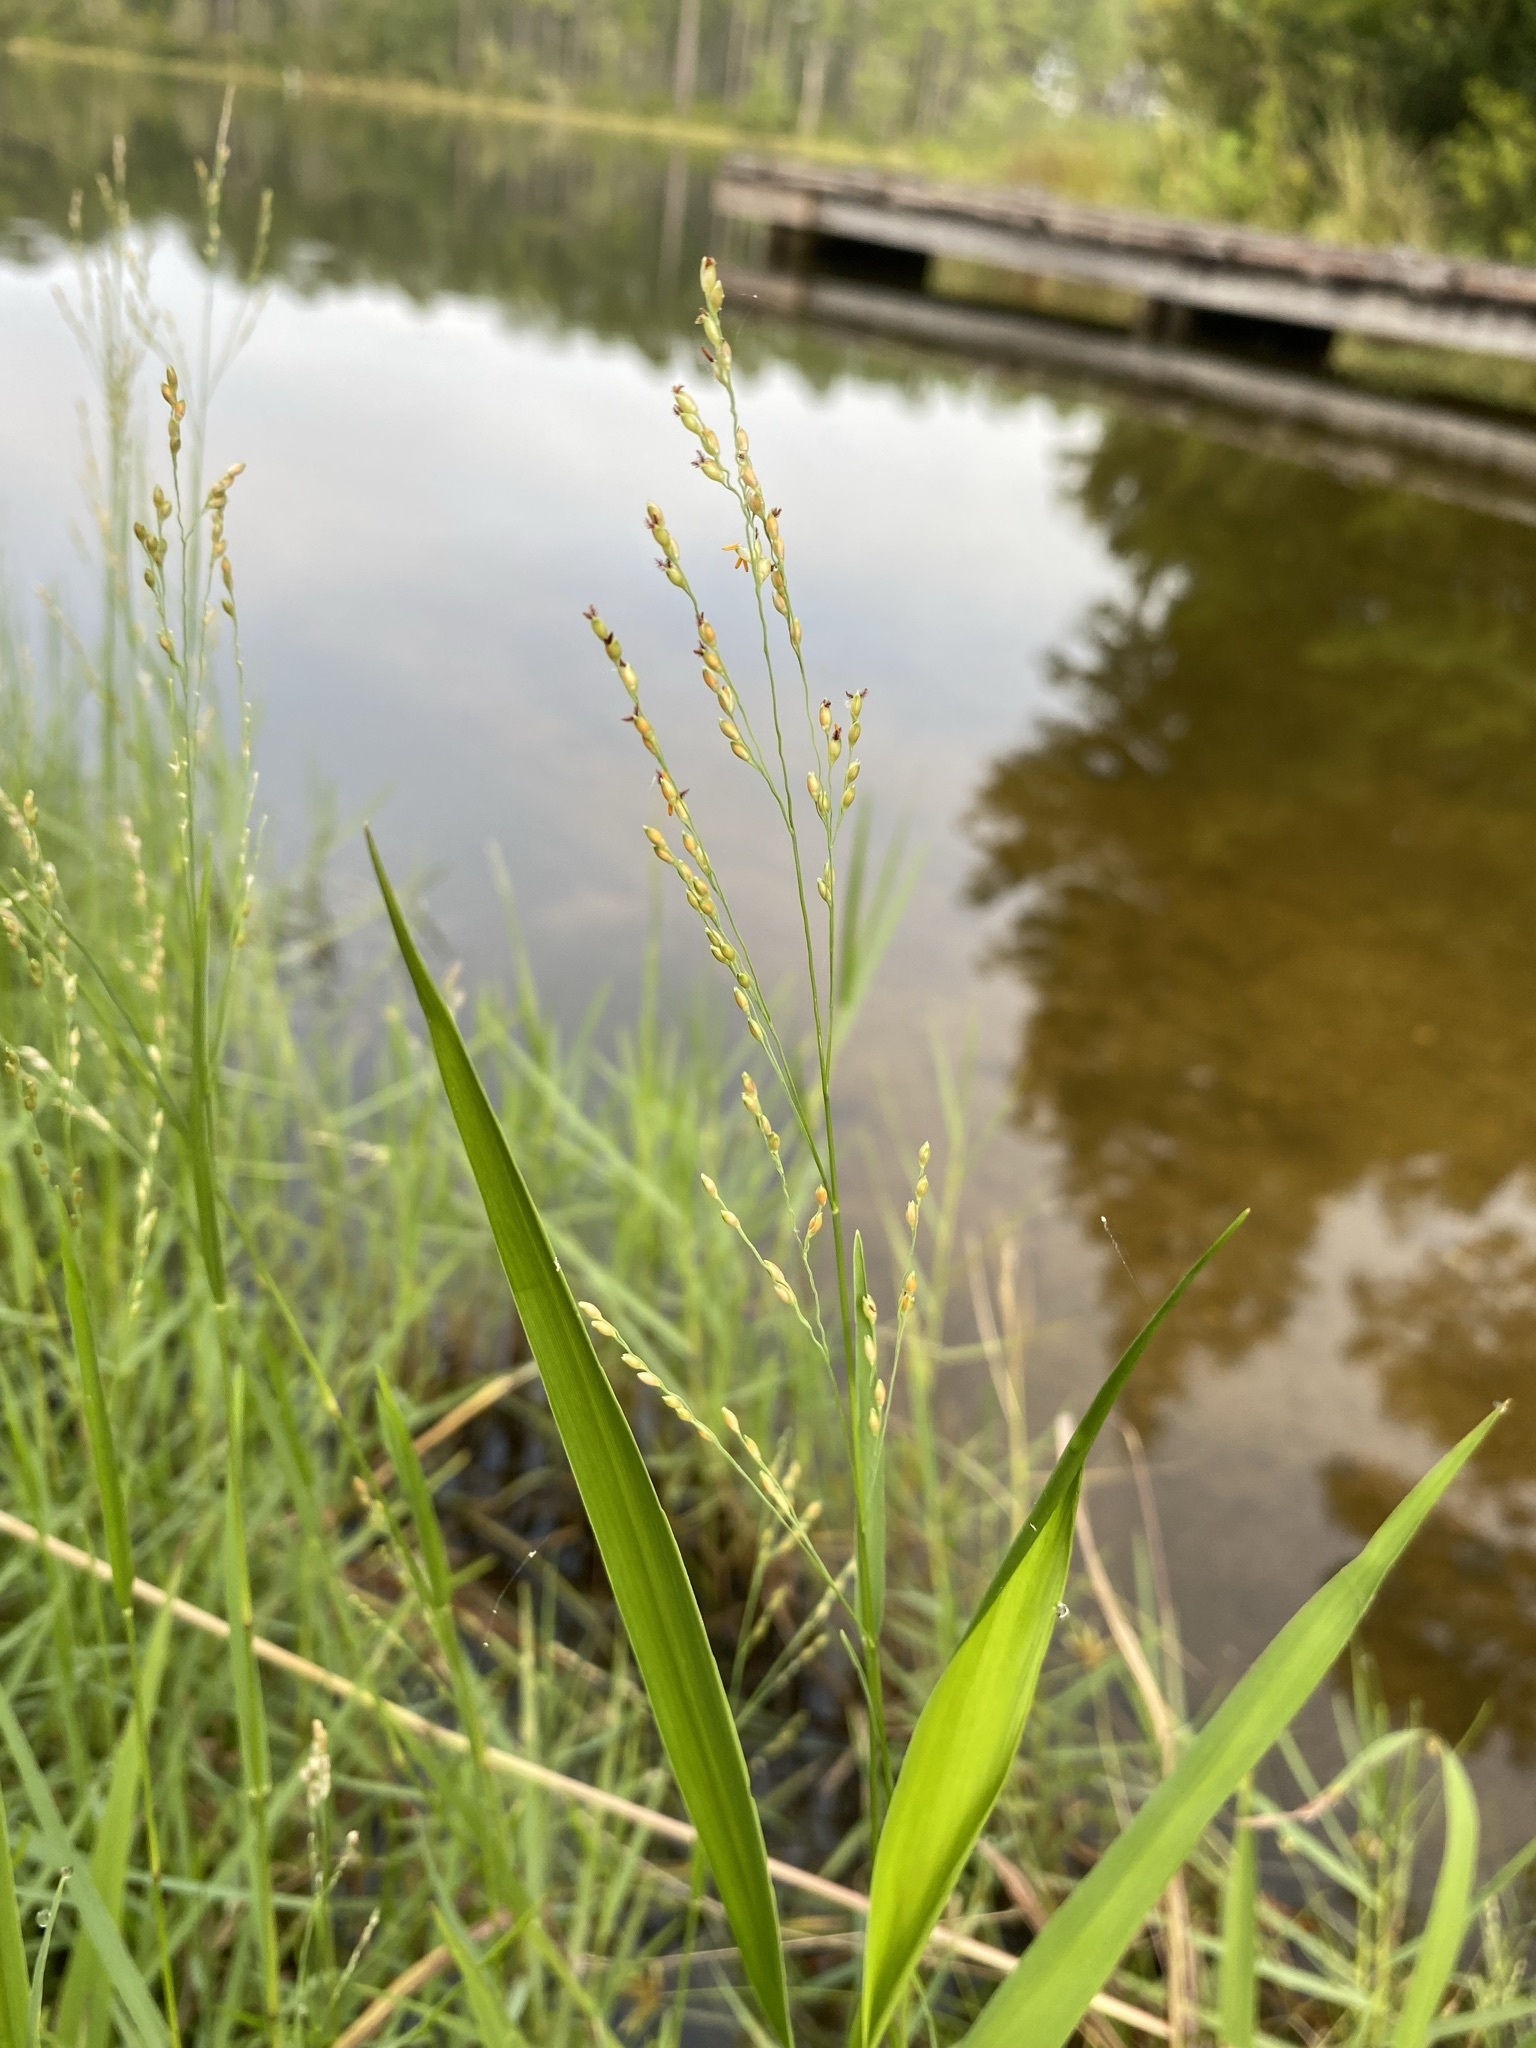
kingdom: Plantae
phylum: Tracheophyta
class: Liliopsida
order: Poales
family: Poaceae
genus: Panicum
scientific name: Panicum repens
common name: Torpedo grass
